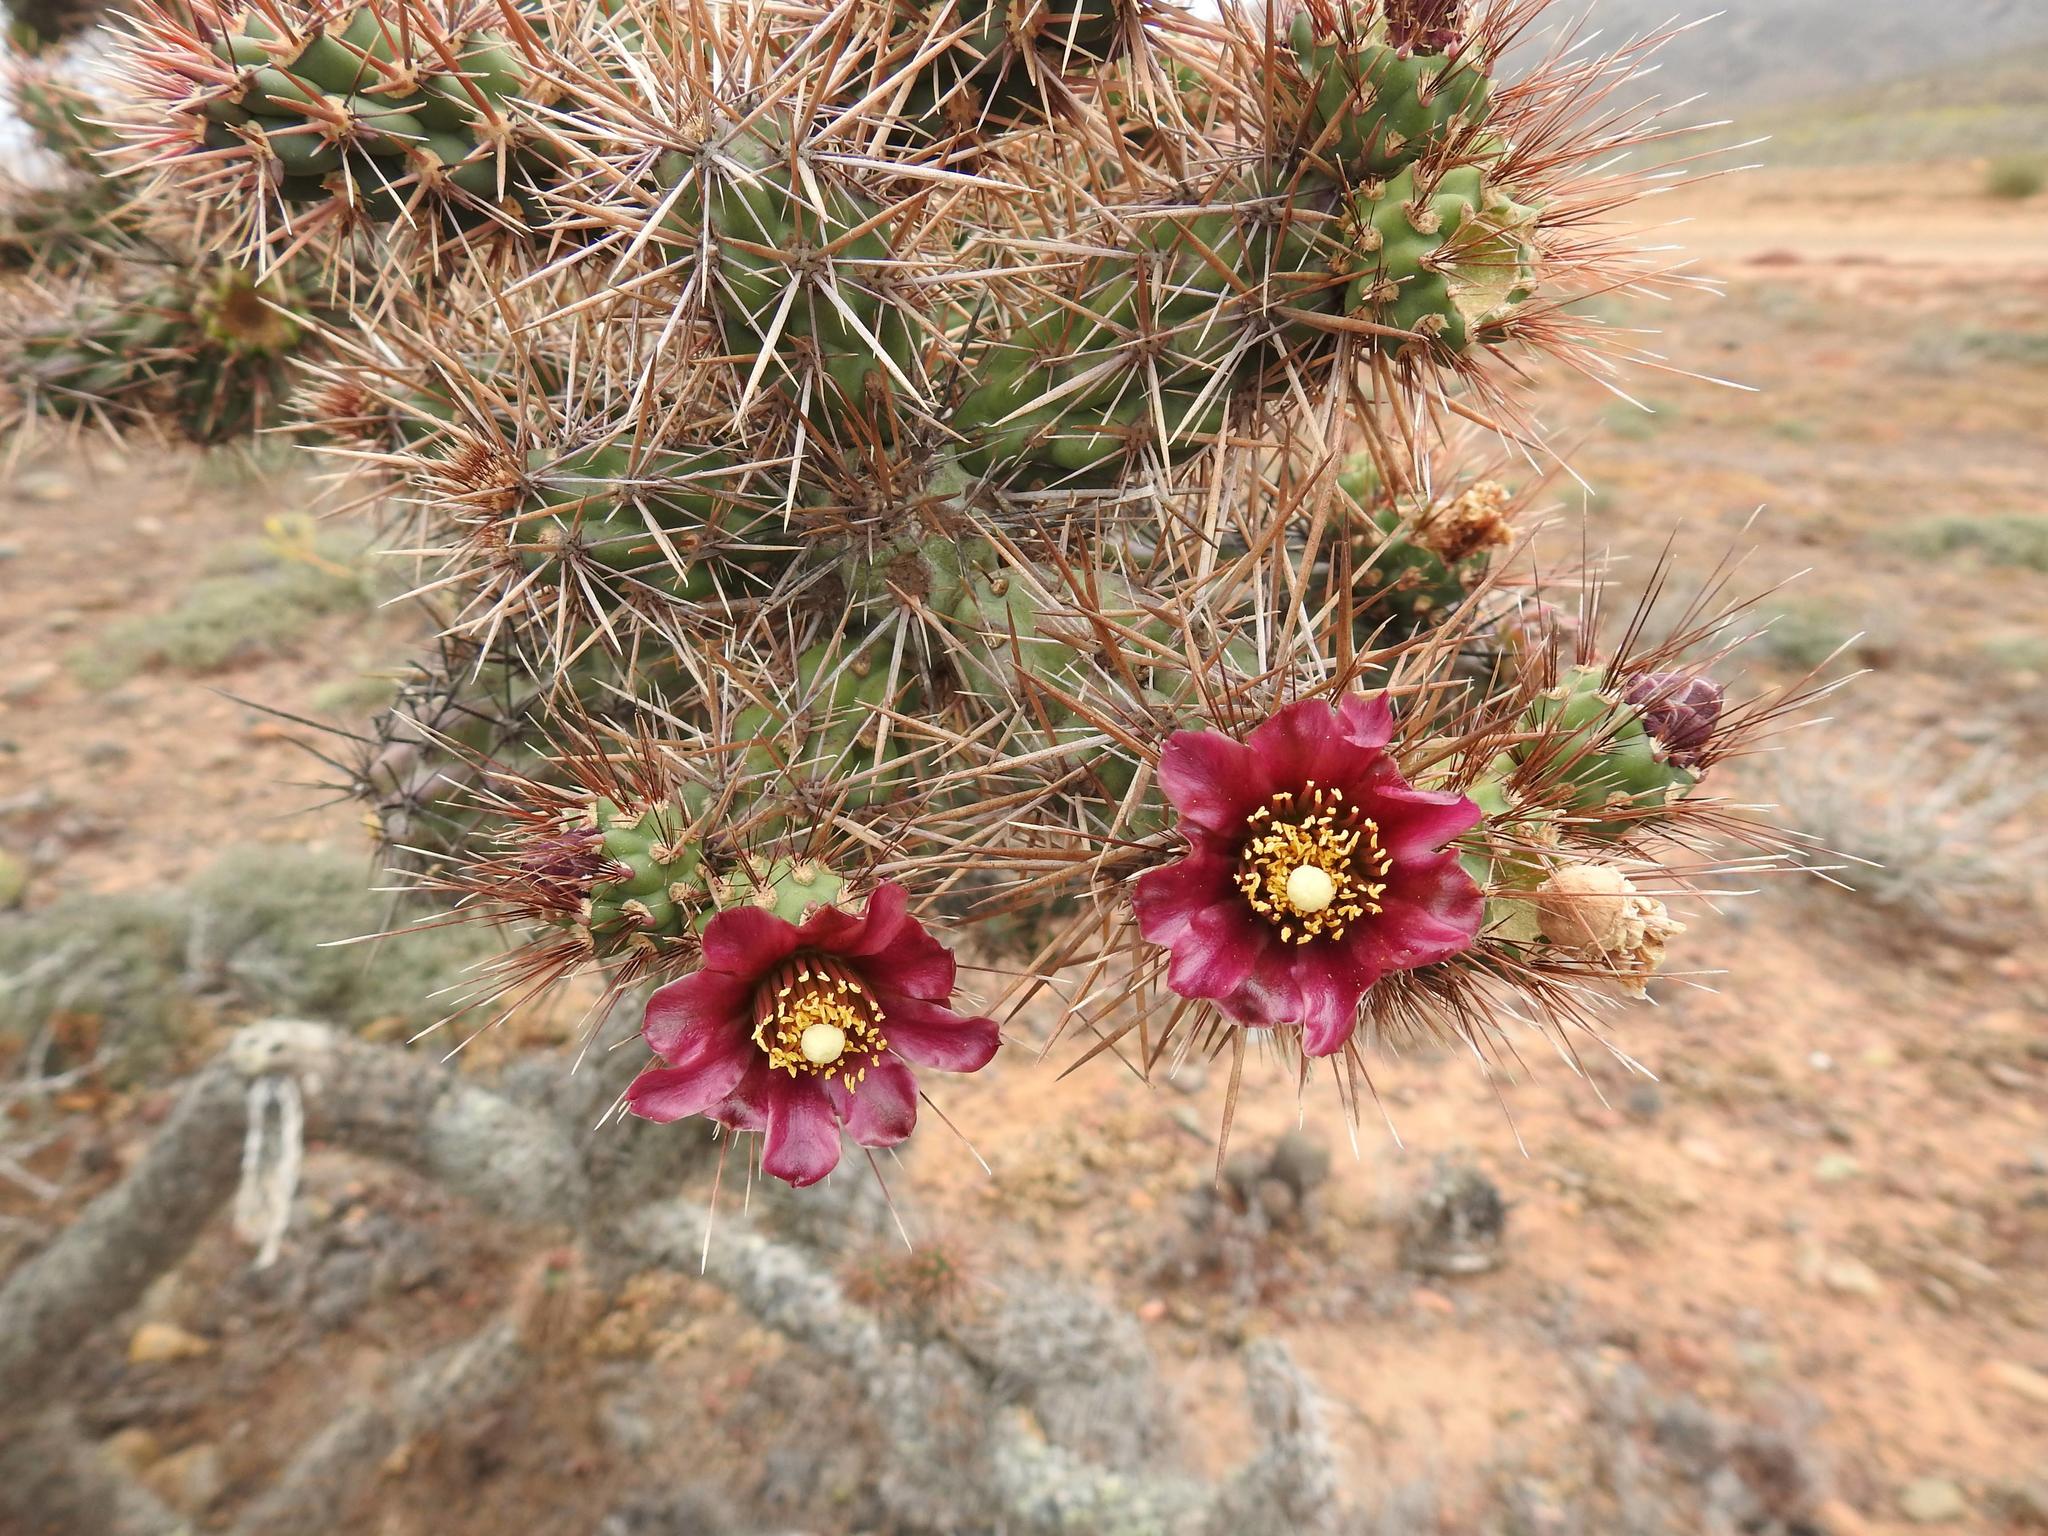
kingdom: Plantae
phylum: Tracheophyta
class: Magnoliopsida
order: Caryophyllales
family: Cactaceae
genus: Cylindropuntia
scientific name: Cylindropuntia prolifera
